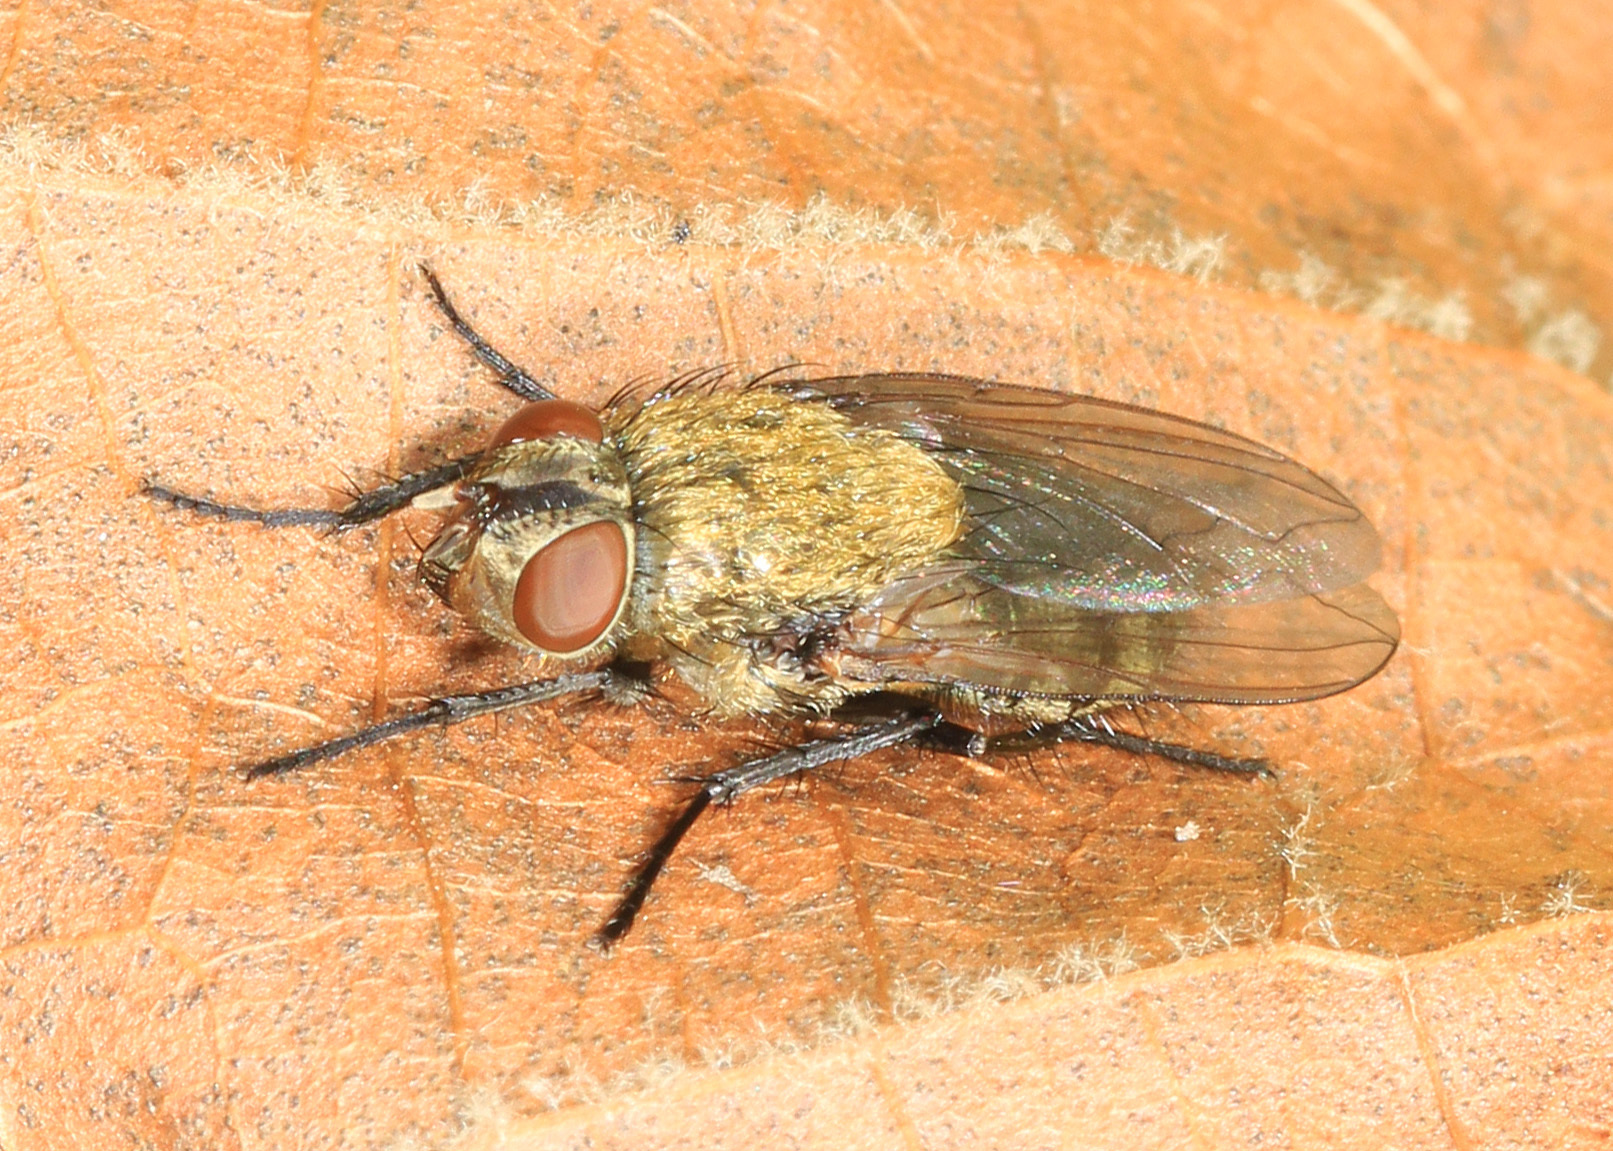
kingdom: Animalia
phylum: Arthropoda
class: Insecta
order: Diptera
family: Polleniidae
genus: Pollenia
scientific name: Pollenia
